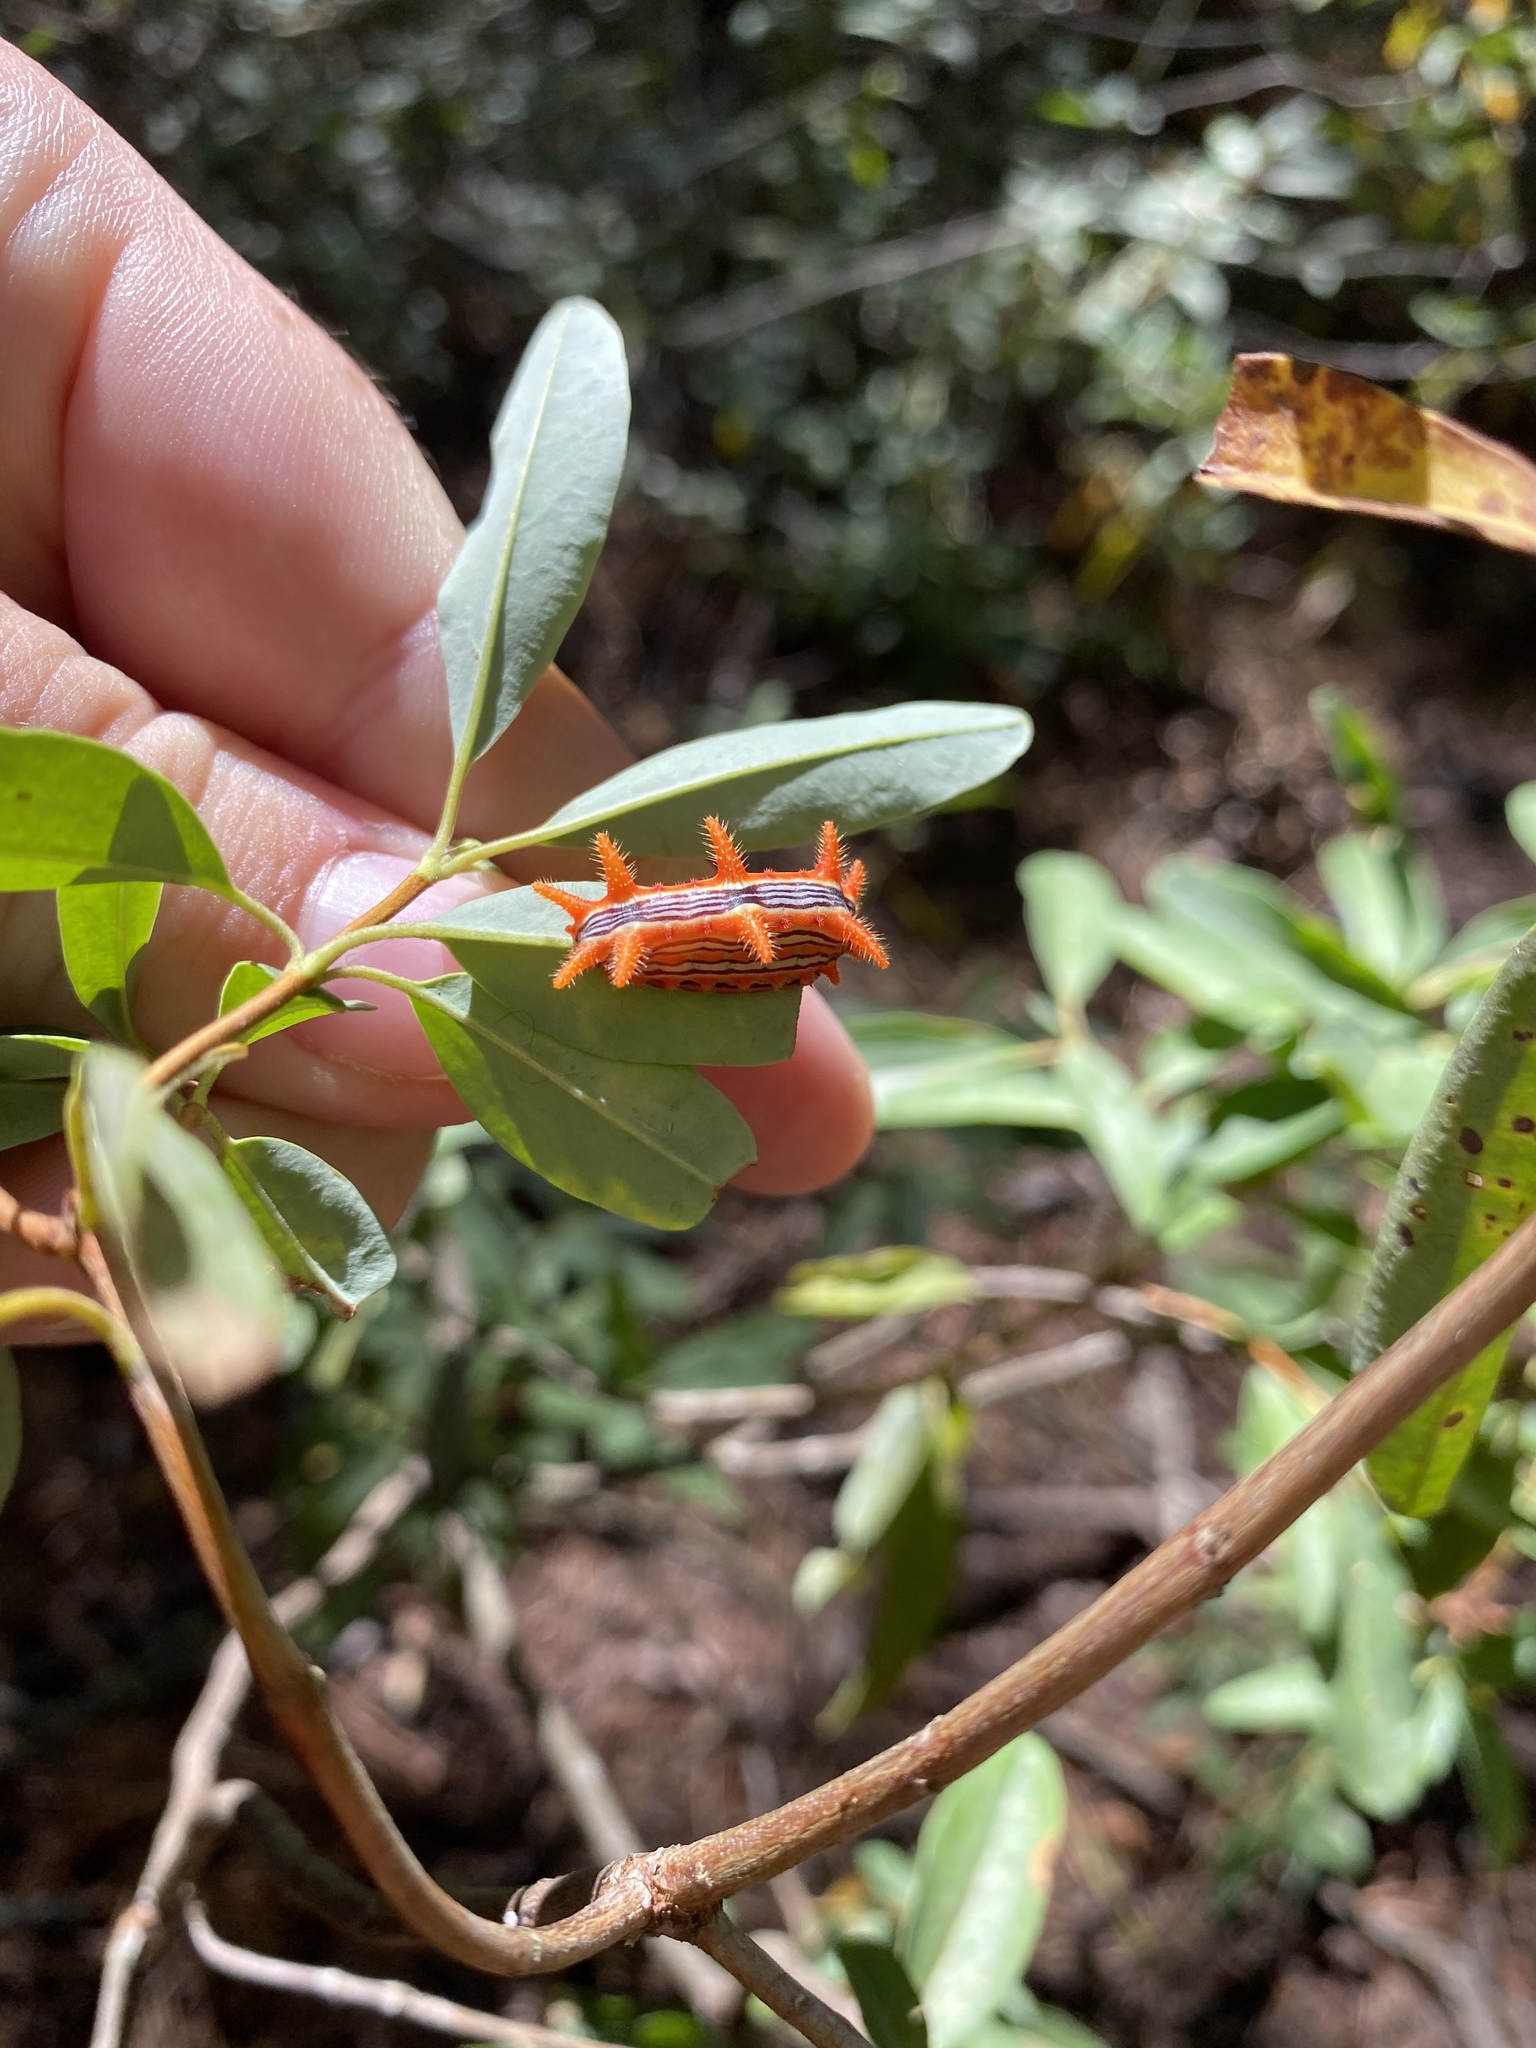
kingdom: Animalia
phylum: Arthropoda
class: Insecta
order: Lepidoptera
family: Limacodidae
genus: Parasa
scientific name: Parasa indetermina
